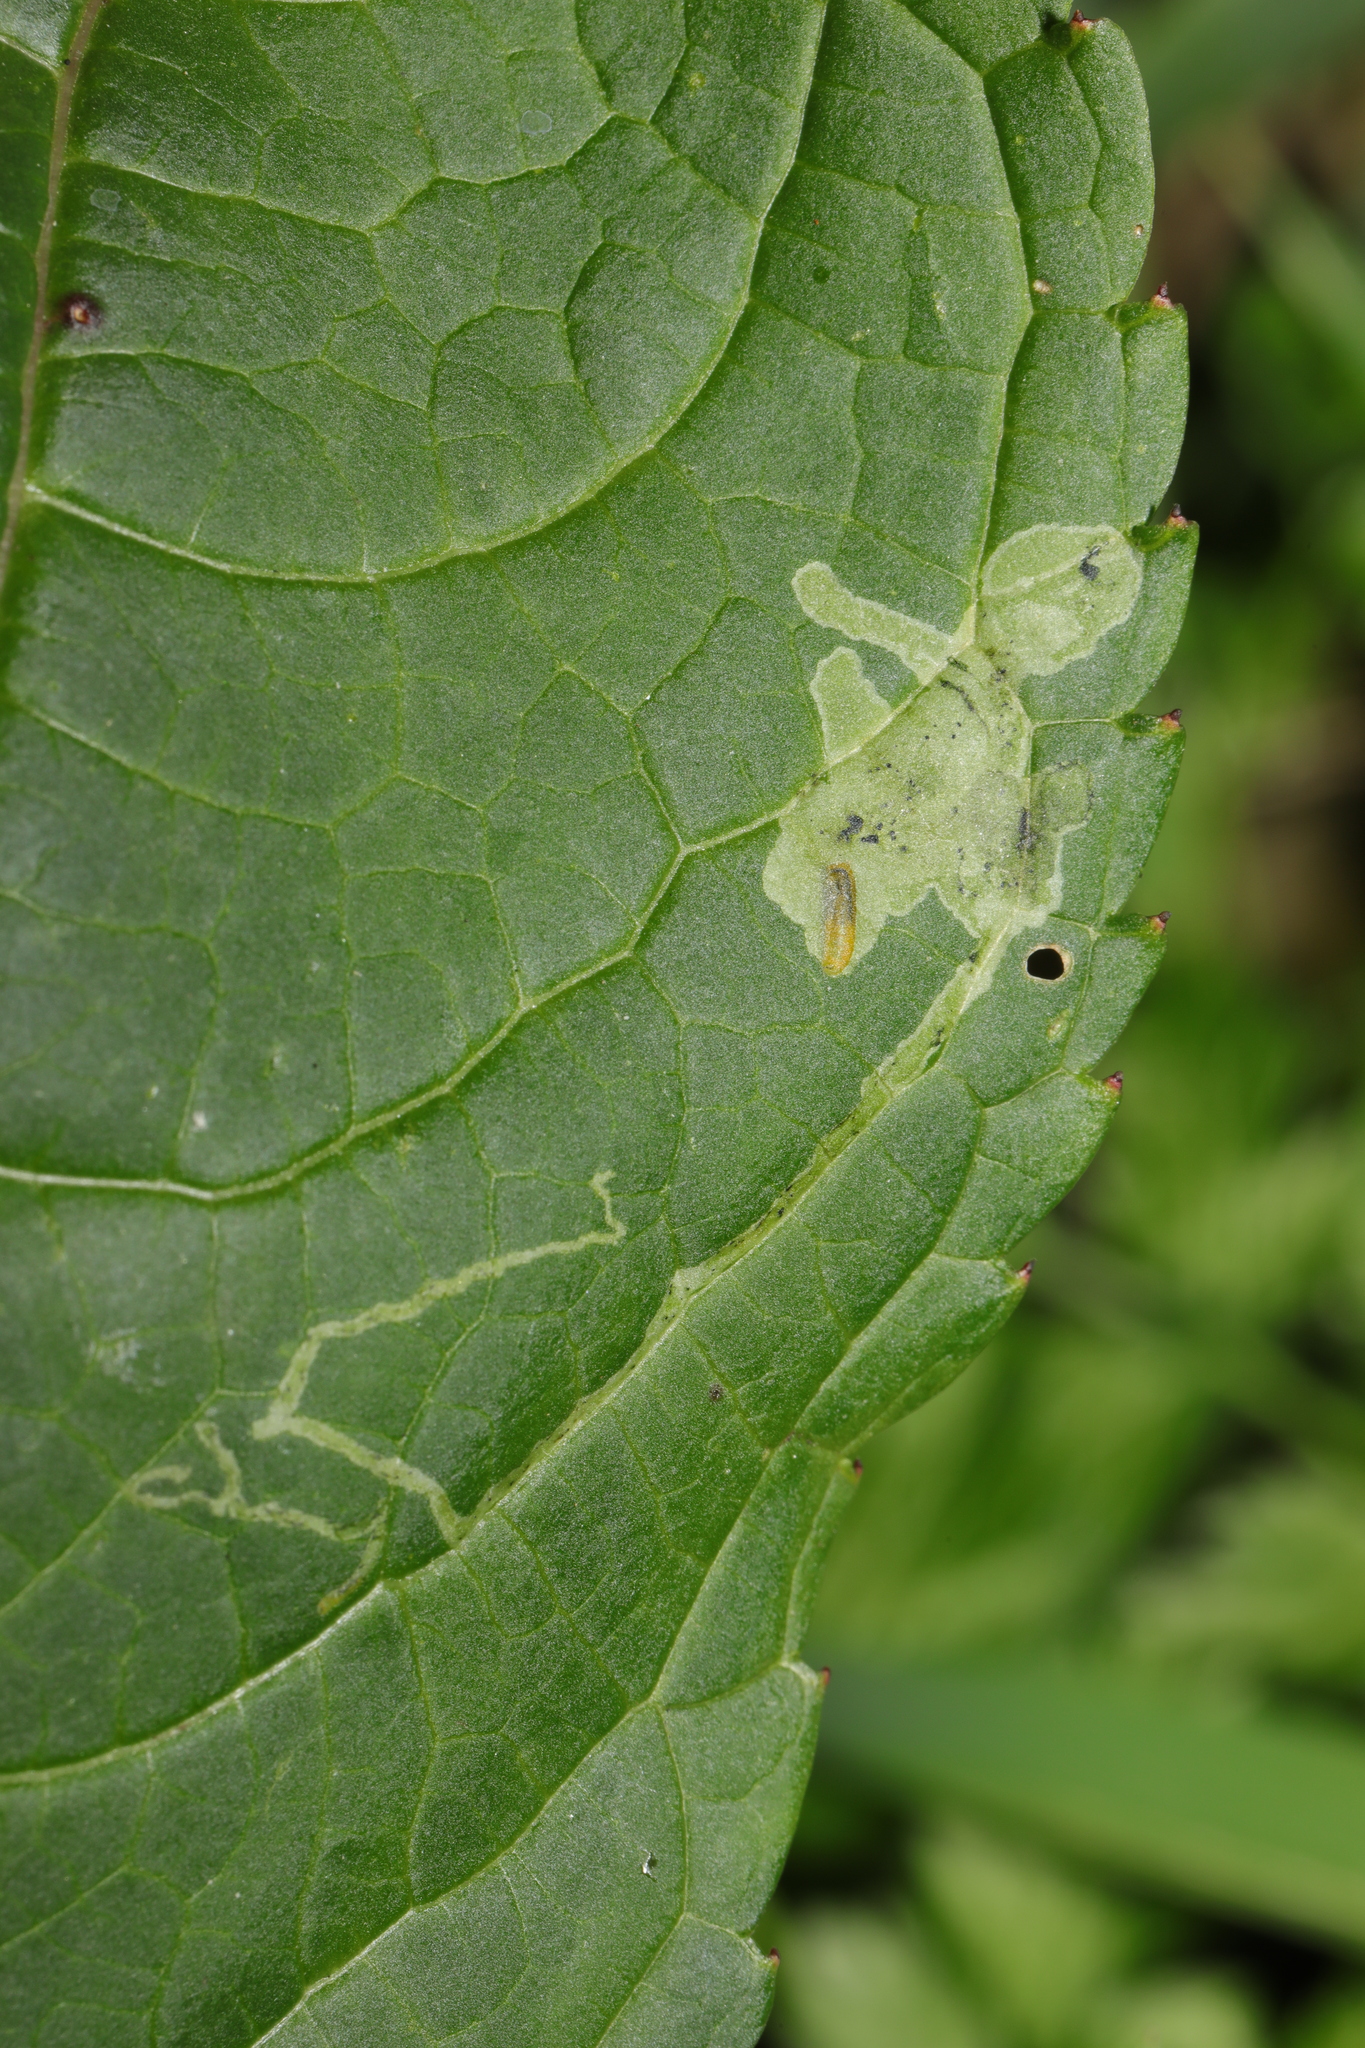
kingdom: Animalia
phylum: Arthropoda
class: Insecta
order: Diptera
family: Agromyzidae
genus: Phytoliriomyza
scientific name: Phytoliriomyza melampyga
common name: Jewelweed leaf-miner fly
